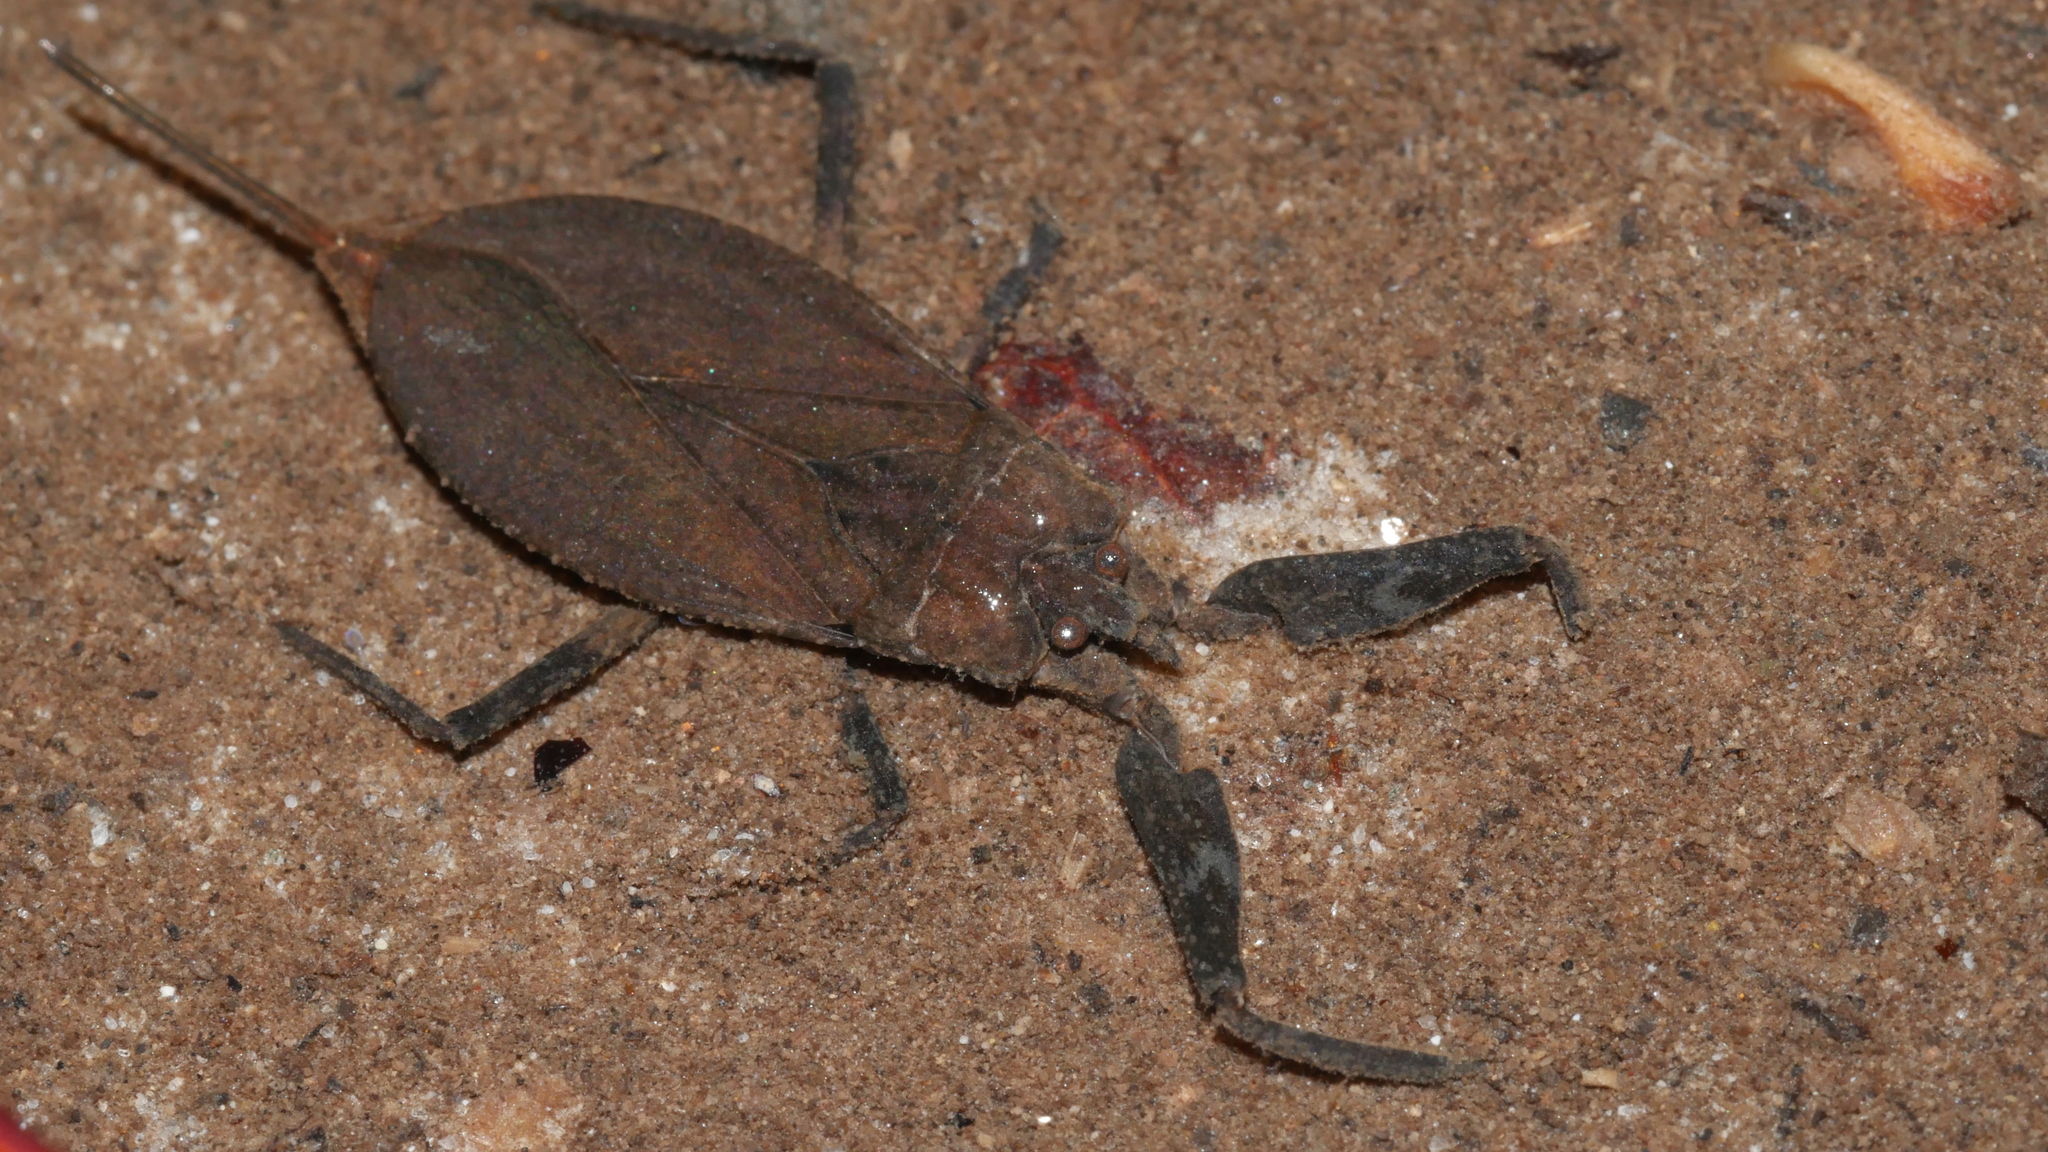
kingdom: Animalia
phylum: Arthropoda
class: Insecta
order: Hemiptera
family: Nepidae
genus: Nepa
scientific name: Nepa apiculata
